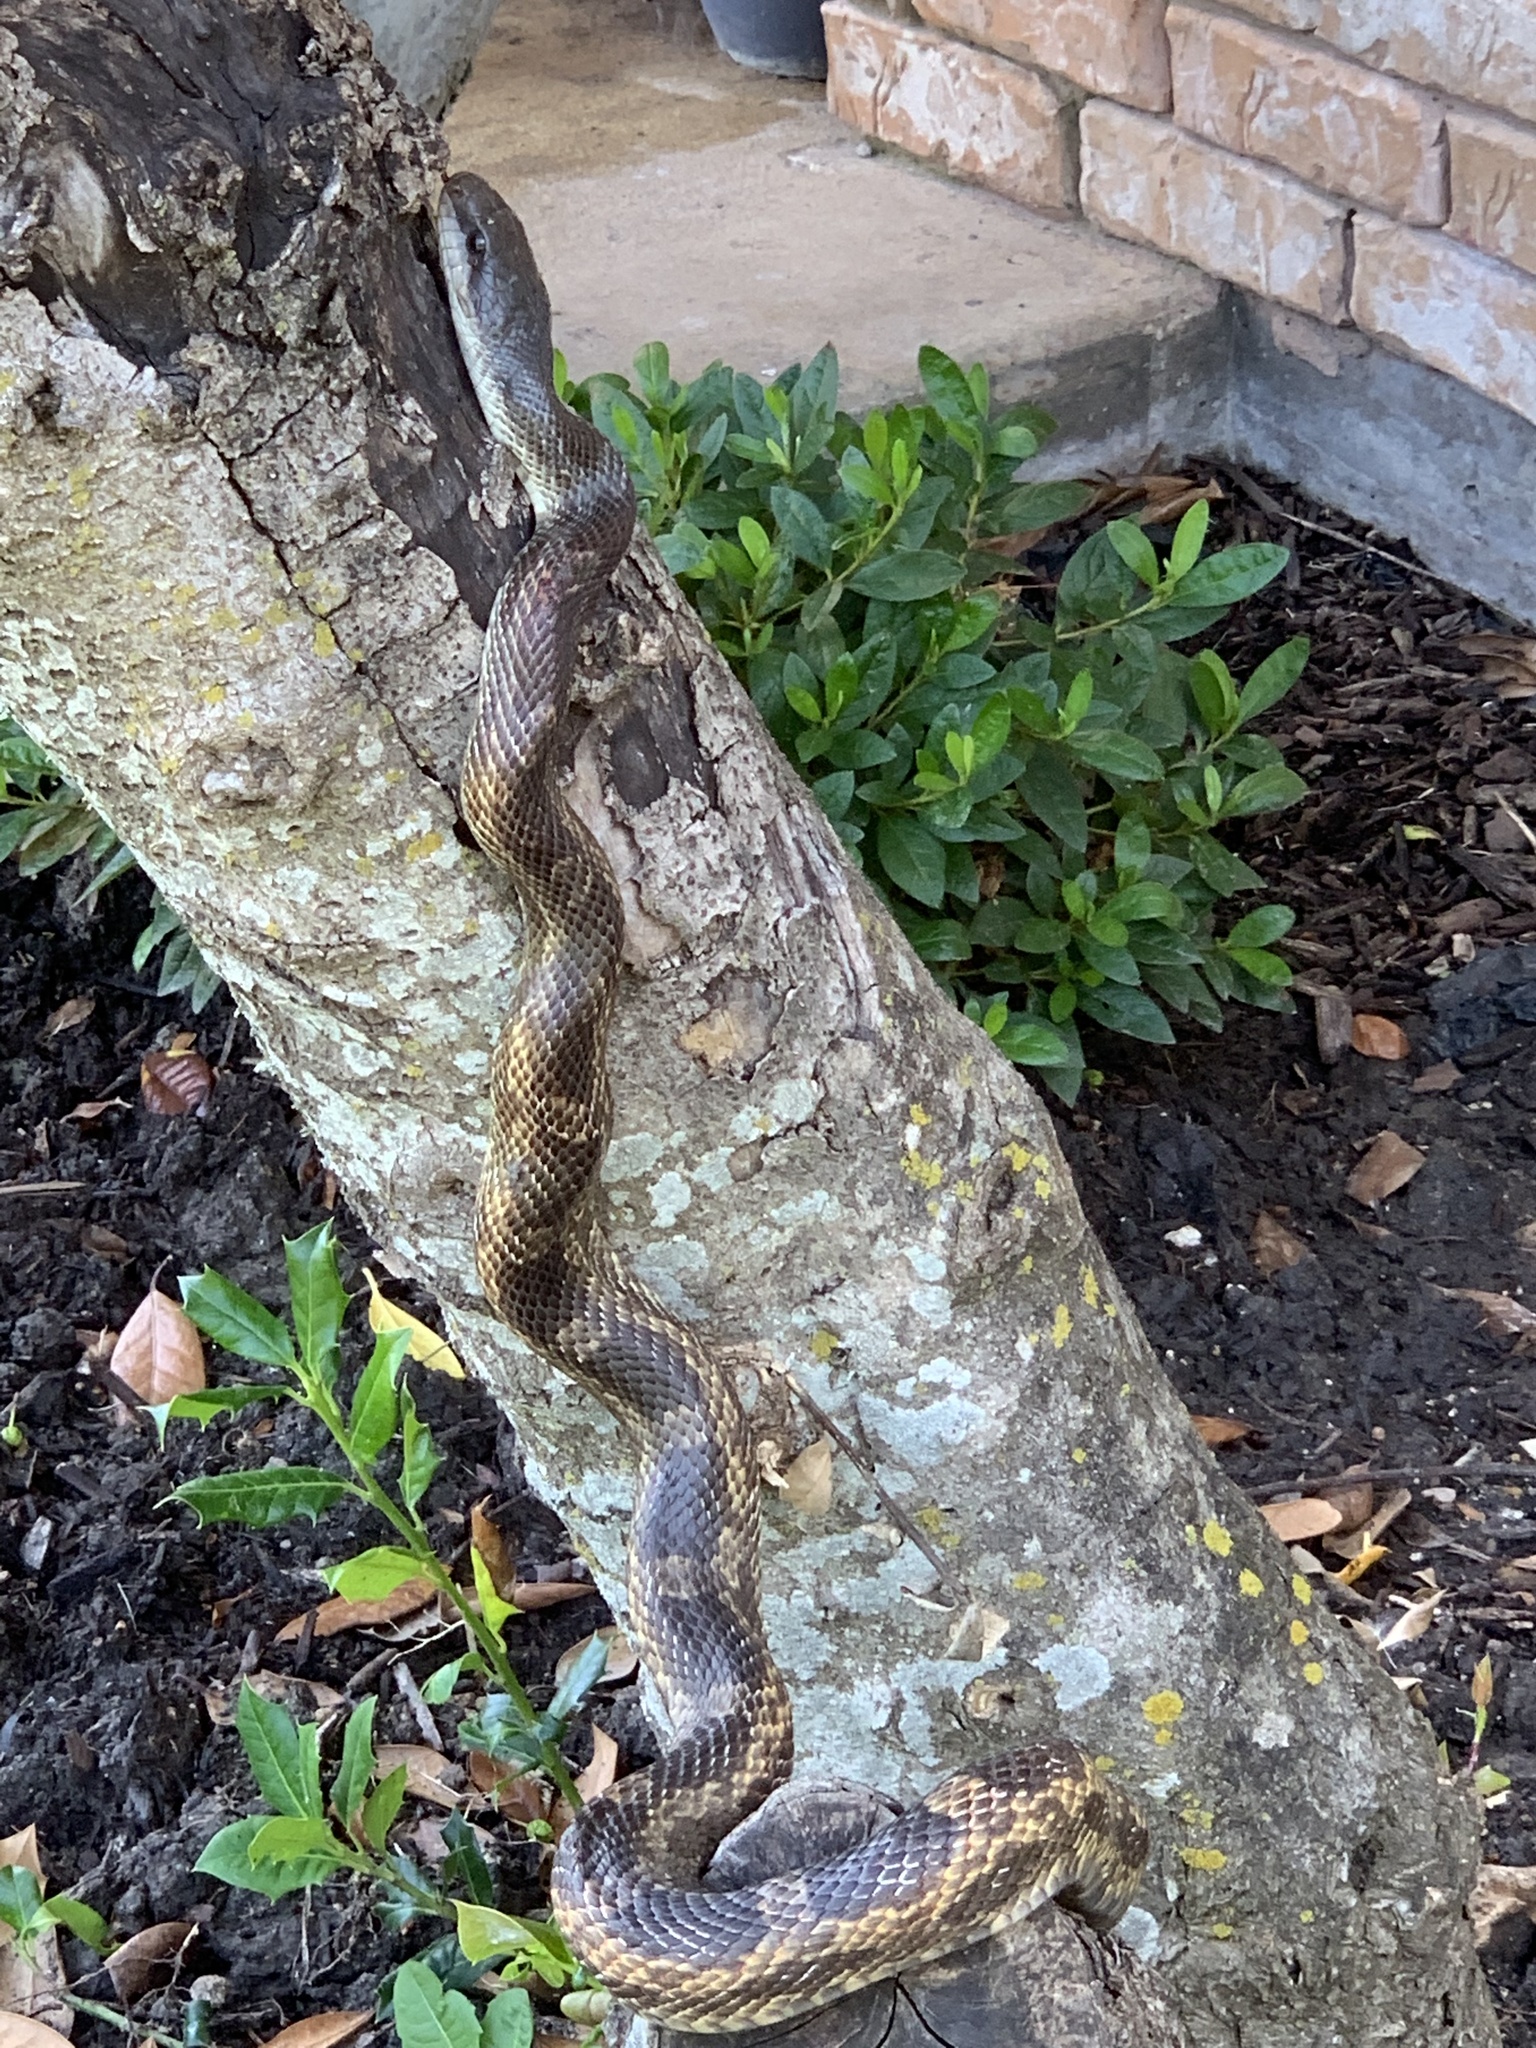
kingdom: Animalia
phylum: Chordata
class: Squamata
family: Colubridae
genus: Pantherophis
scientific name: Pantherophis obsoletus
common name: Black rat snake
